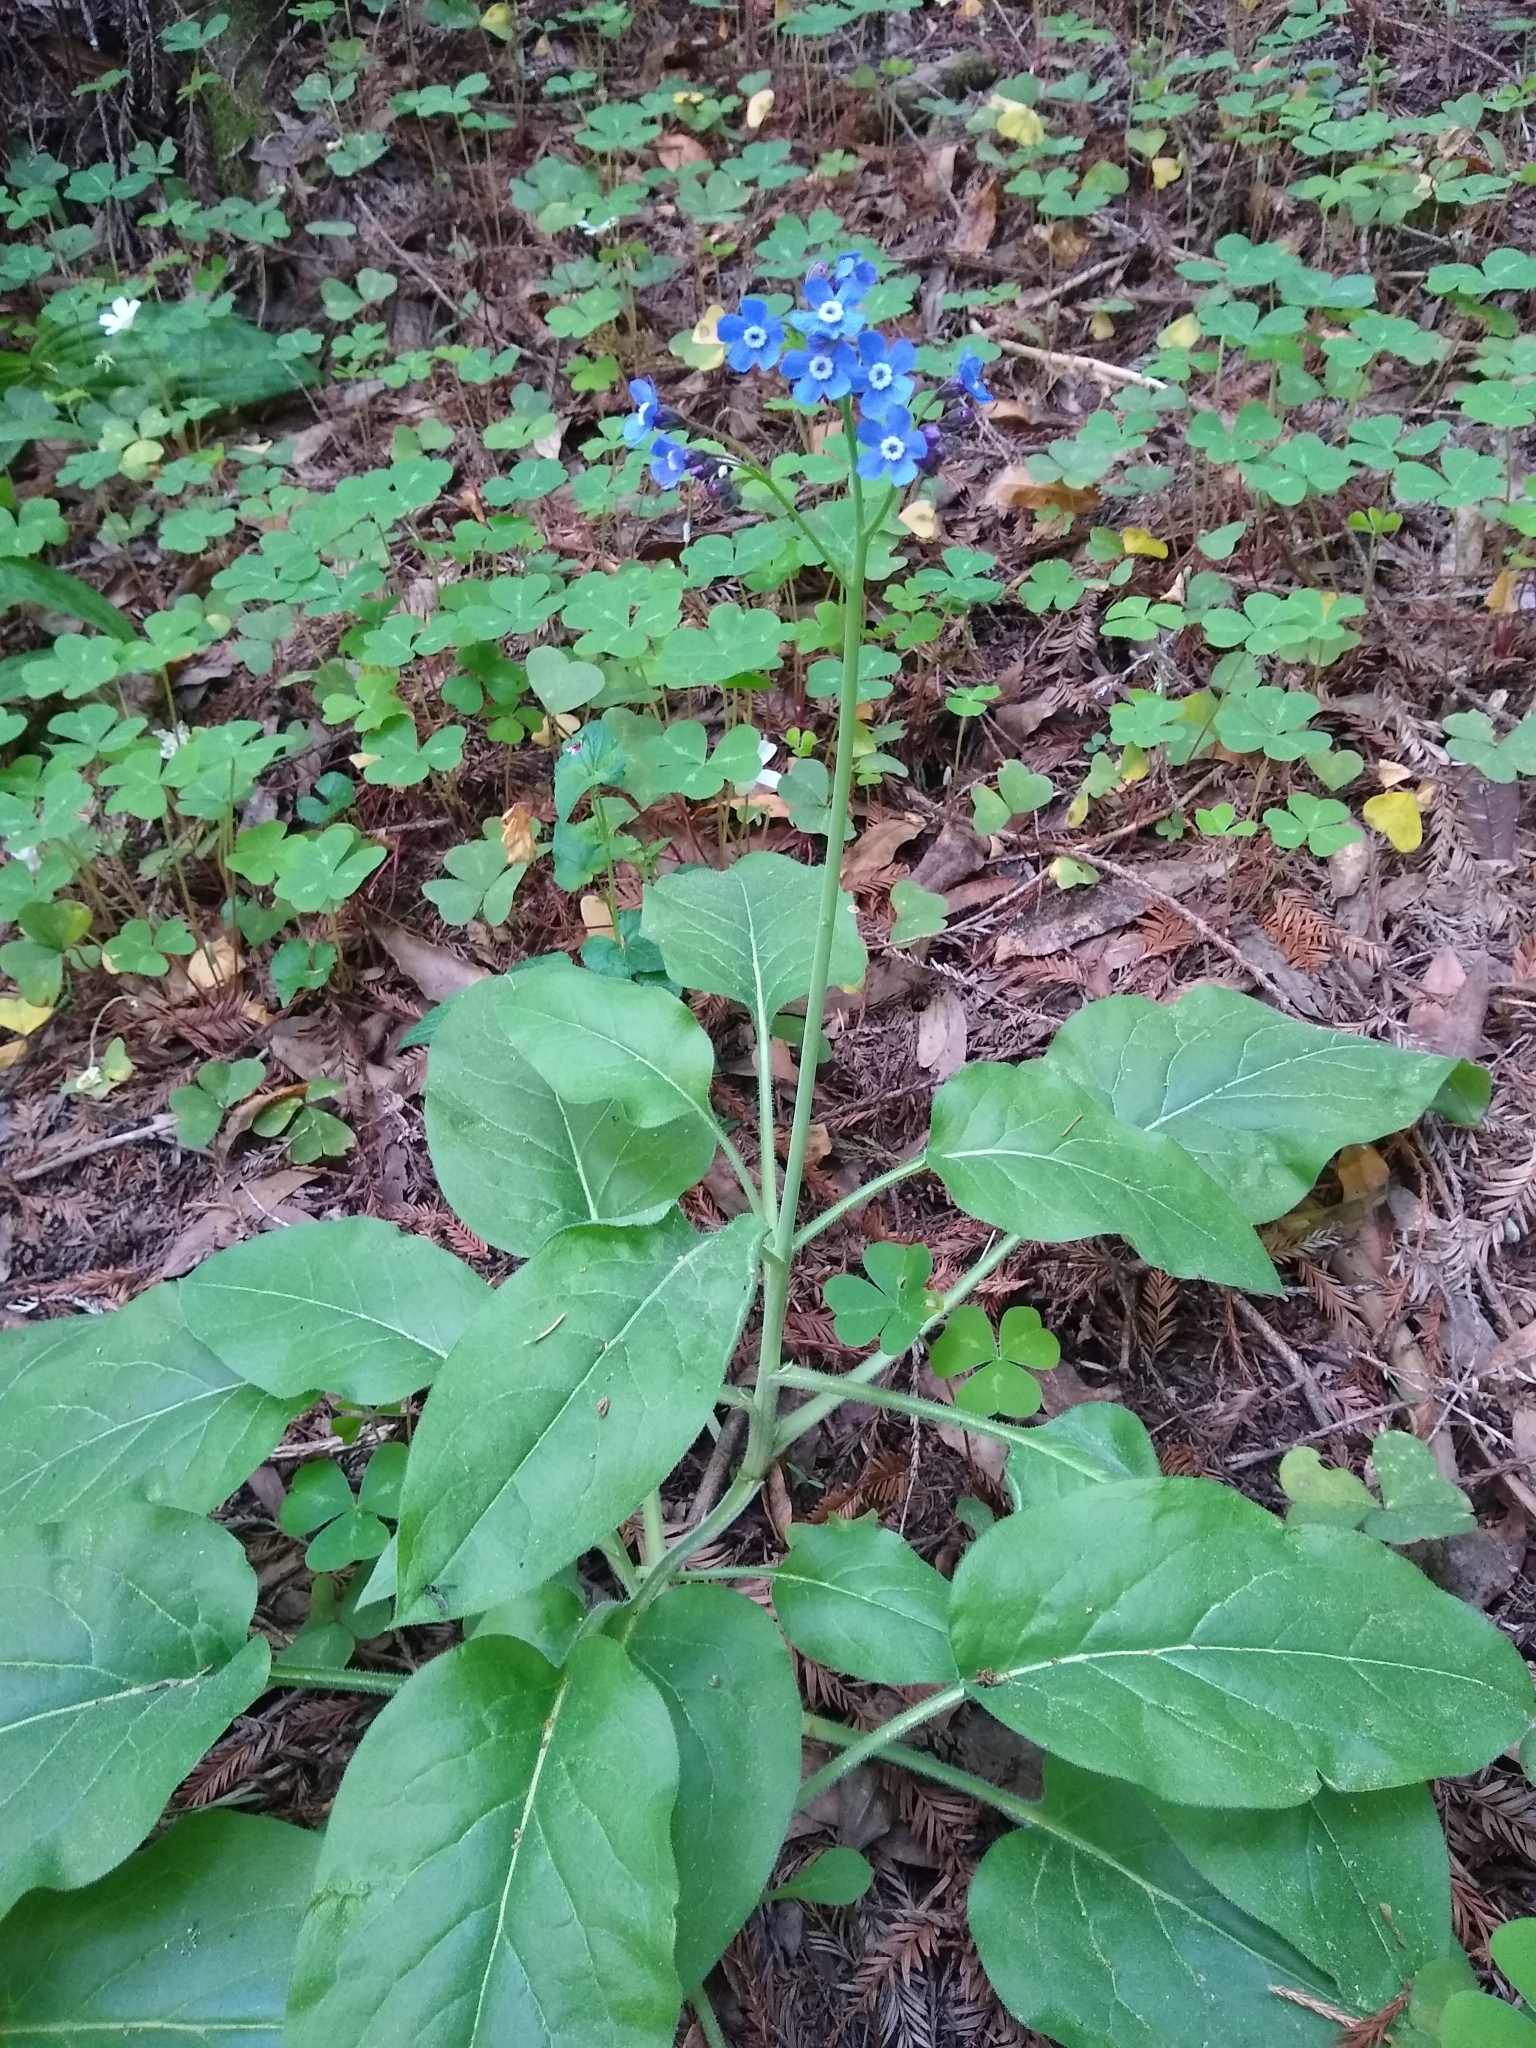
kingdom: Plantae
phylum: Tracheophyta
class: Magnoliopsida
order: Boraginales
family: Boraginaceae
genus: Adelinia
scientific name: Adelinia grande
